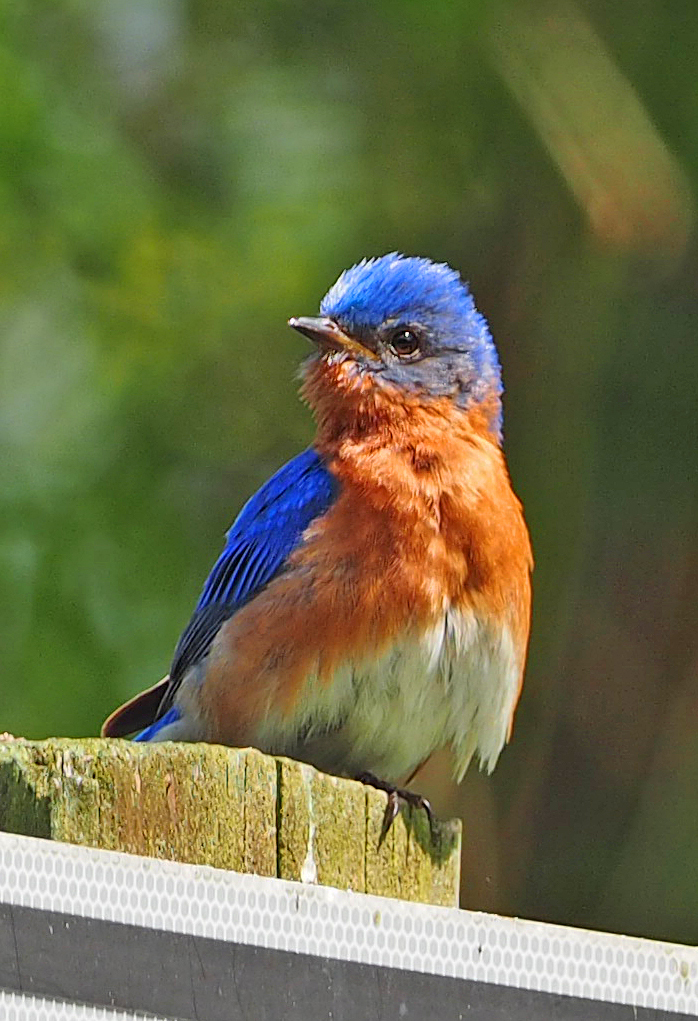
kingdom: Animalia
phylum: Chordata
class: Aves
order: Passeriformes
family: Turdidae
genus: Sialia
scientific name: Sialia sialis
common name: Eastern bluebird
